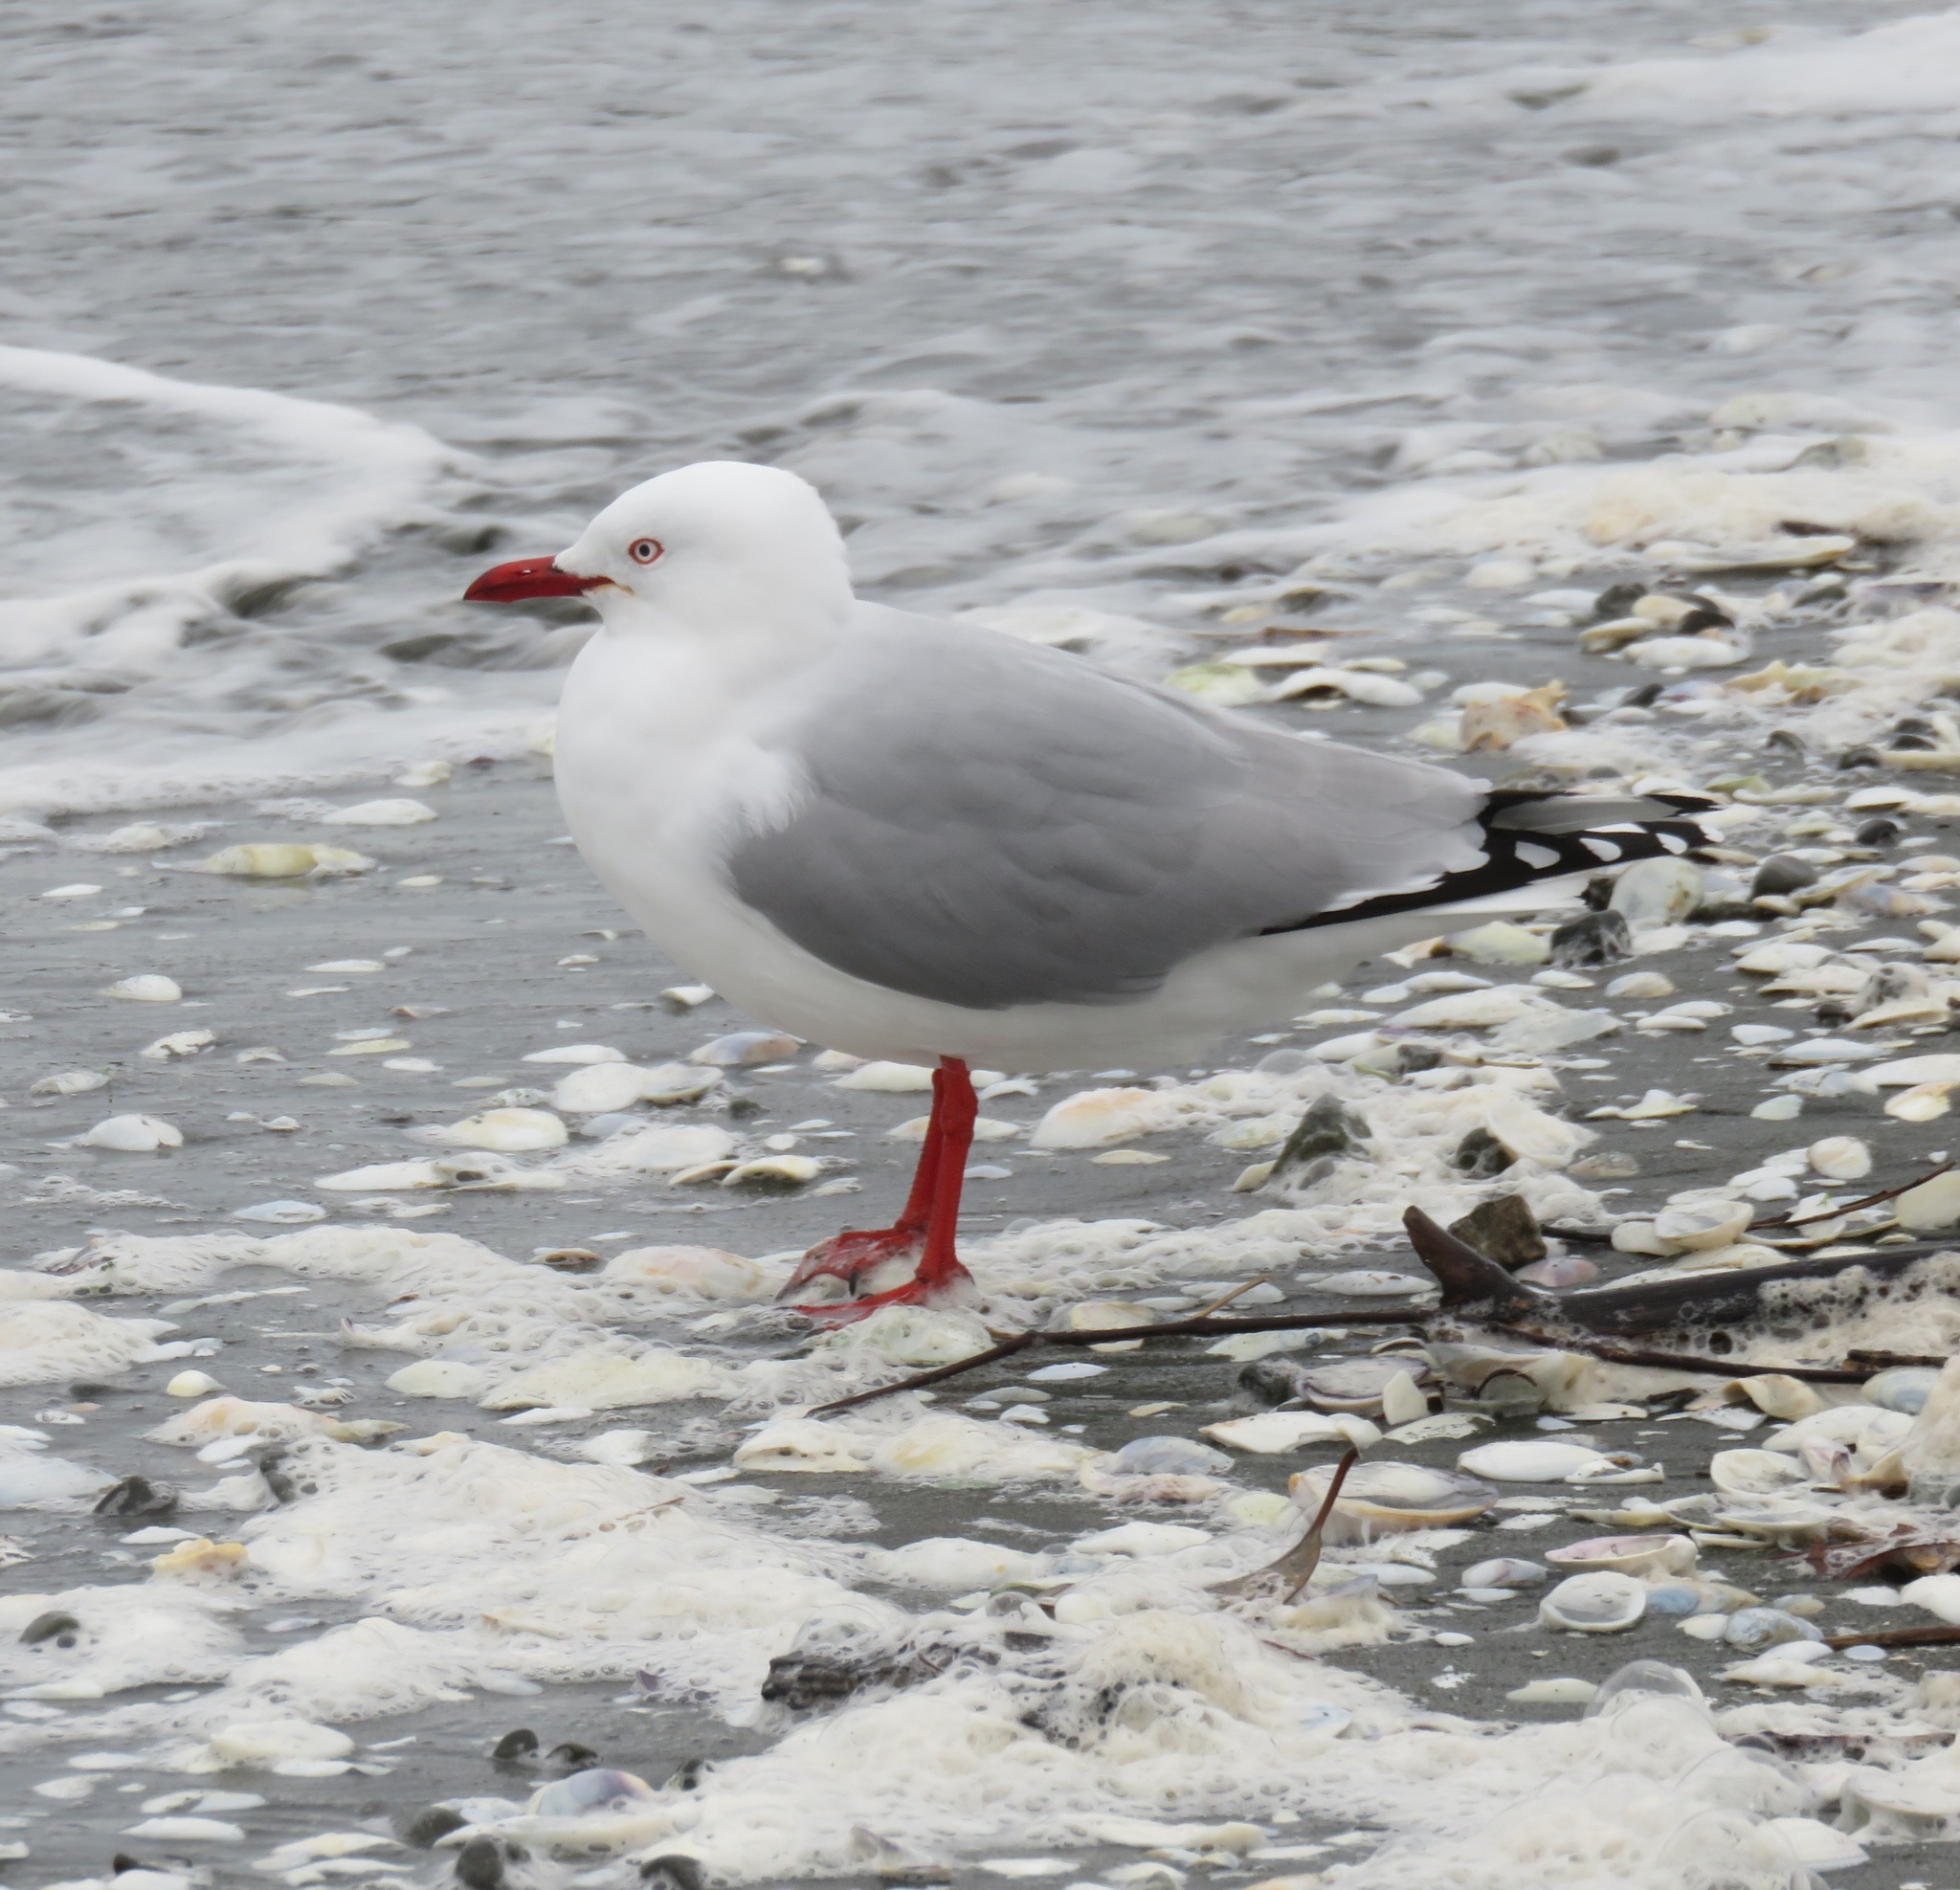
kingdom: Animalia
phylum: Chordata
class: Aves
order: Charadriiformes
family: Laridae
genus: Chroicocephalus
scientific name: Chroicocephalus novaehollandiae
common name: Silver gull
